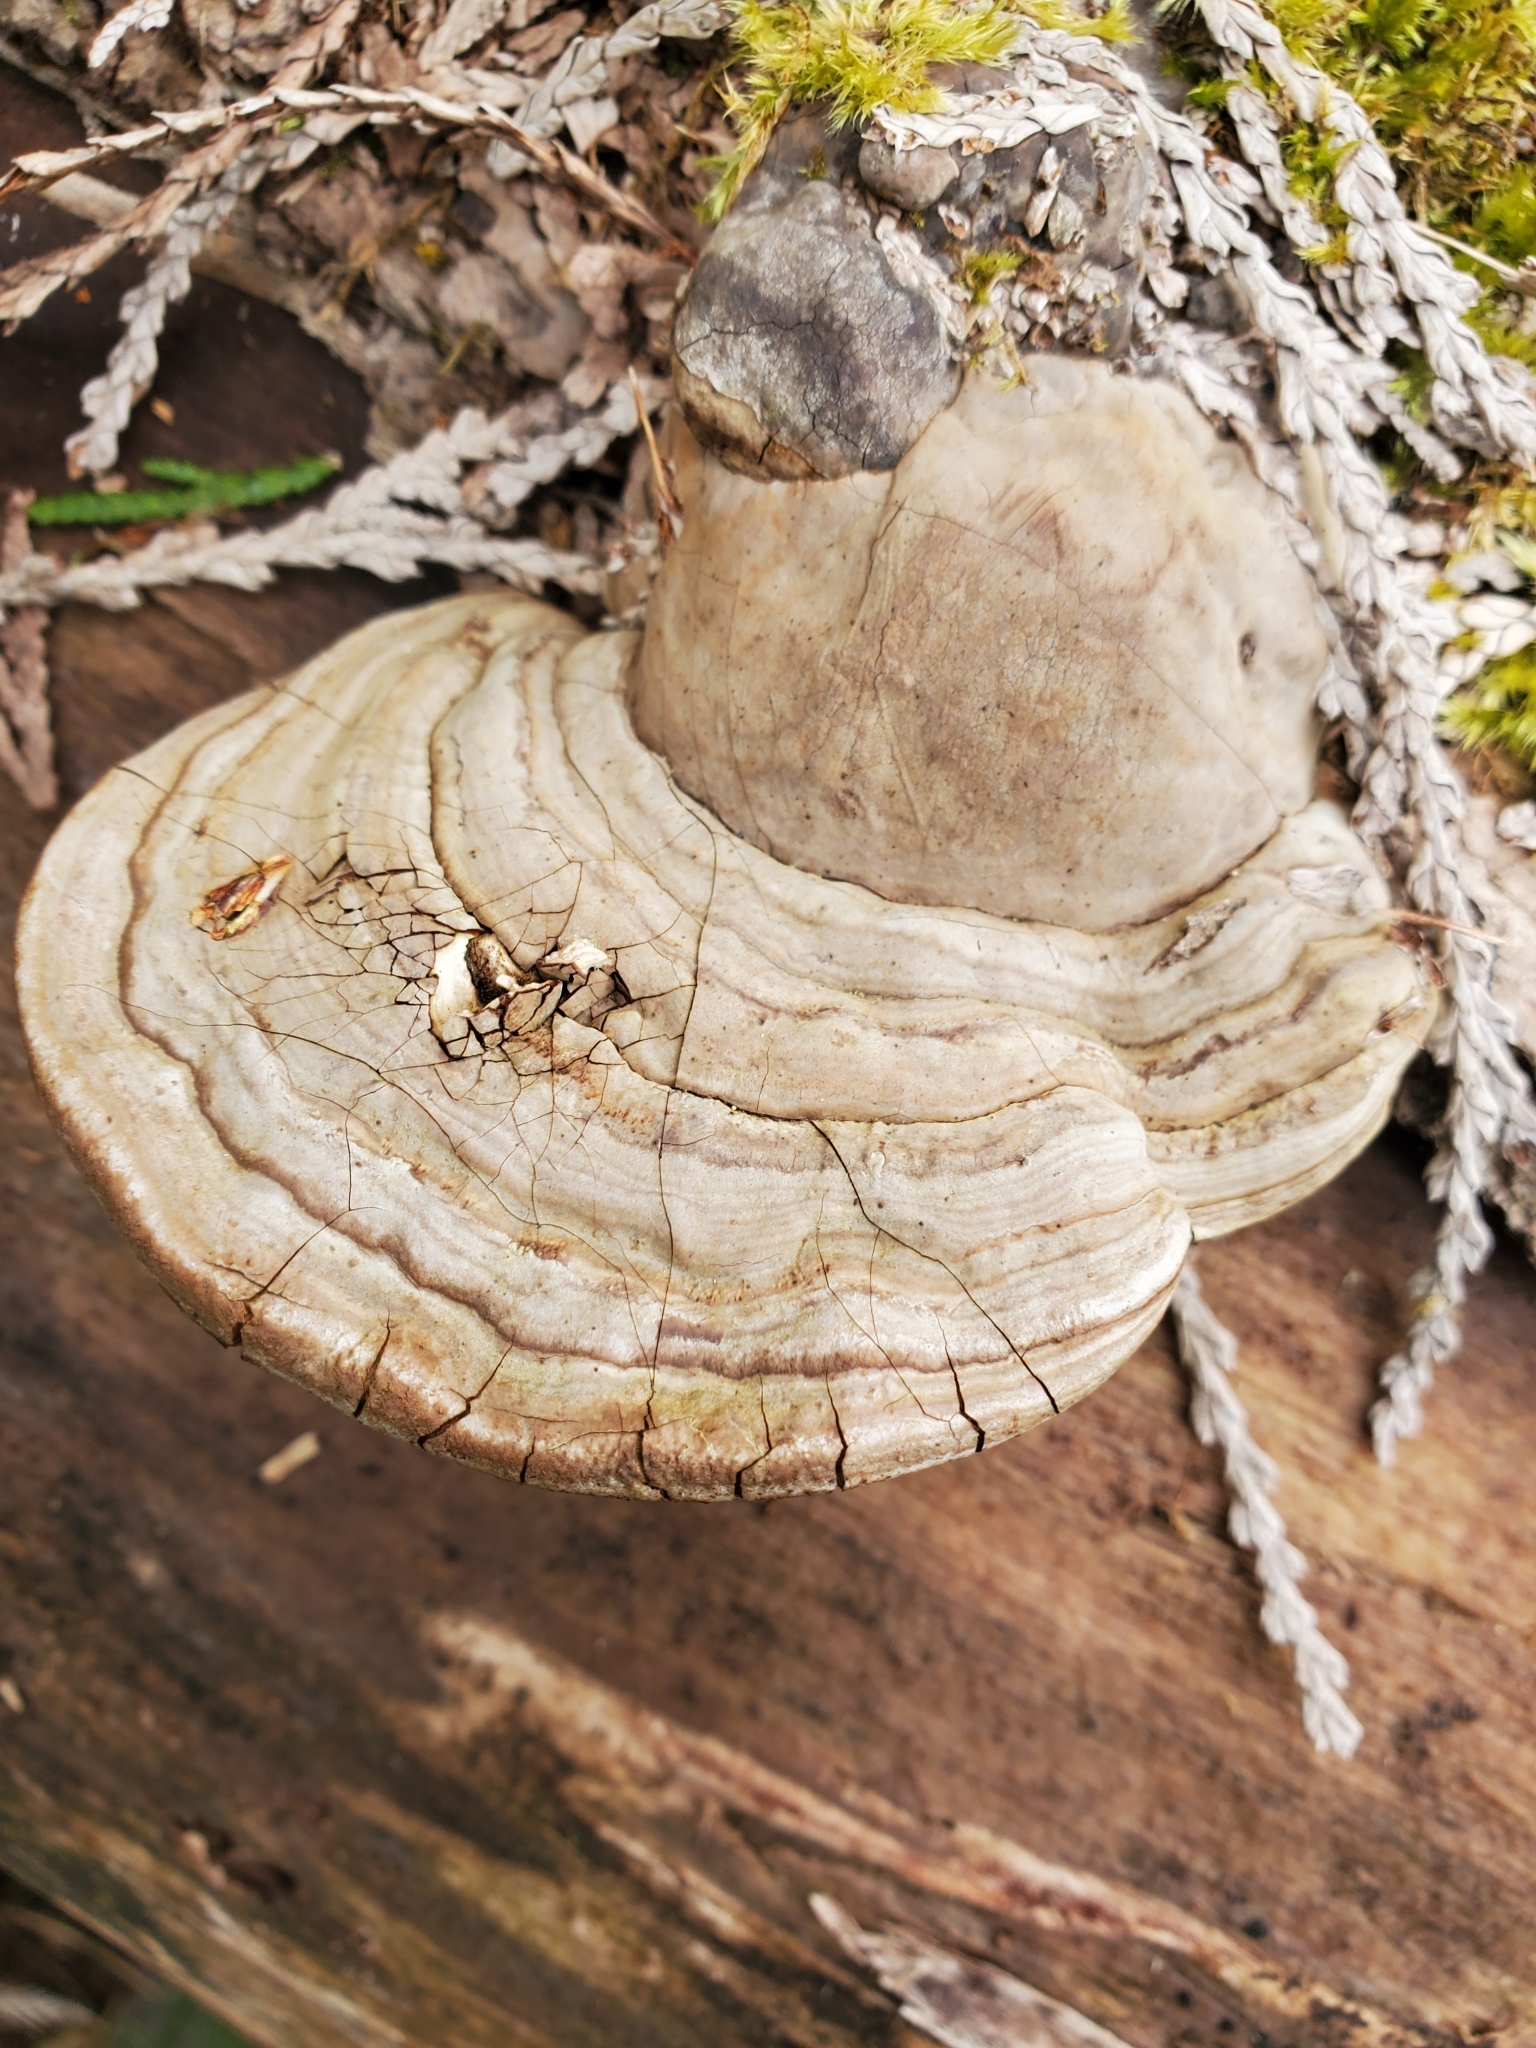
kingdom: Fungi
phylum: Basidiomycota
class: Agaricomycetes
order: Polyporales
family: Polyporaceae
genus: Ganoderma
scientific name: Ganoderma applanatum
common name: Artist's bracket
